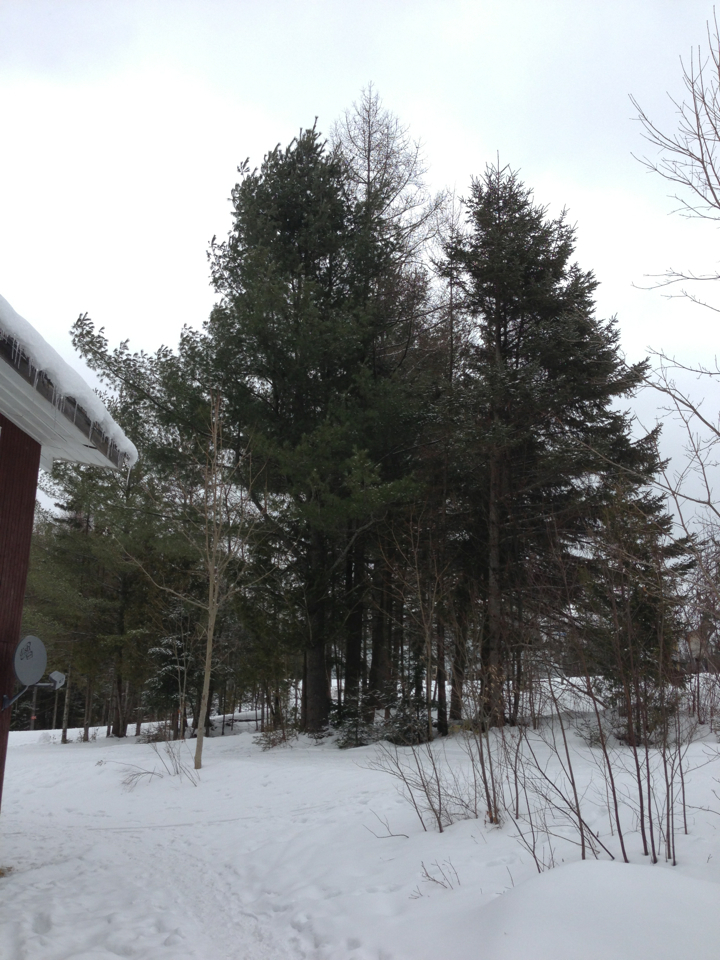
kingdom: Plantae
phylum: Tracheophyta
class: Pinopsida
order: Pinales
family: Pinaceae
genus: Pinus
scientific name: Pinus strobus
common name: Weymouth pine
